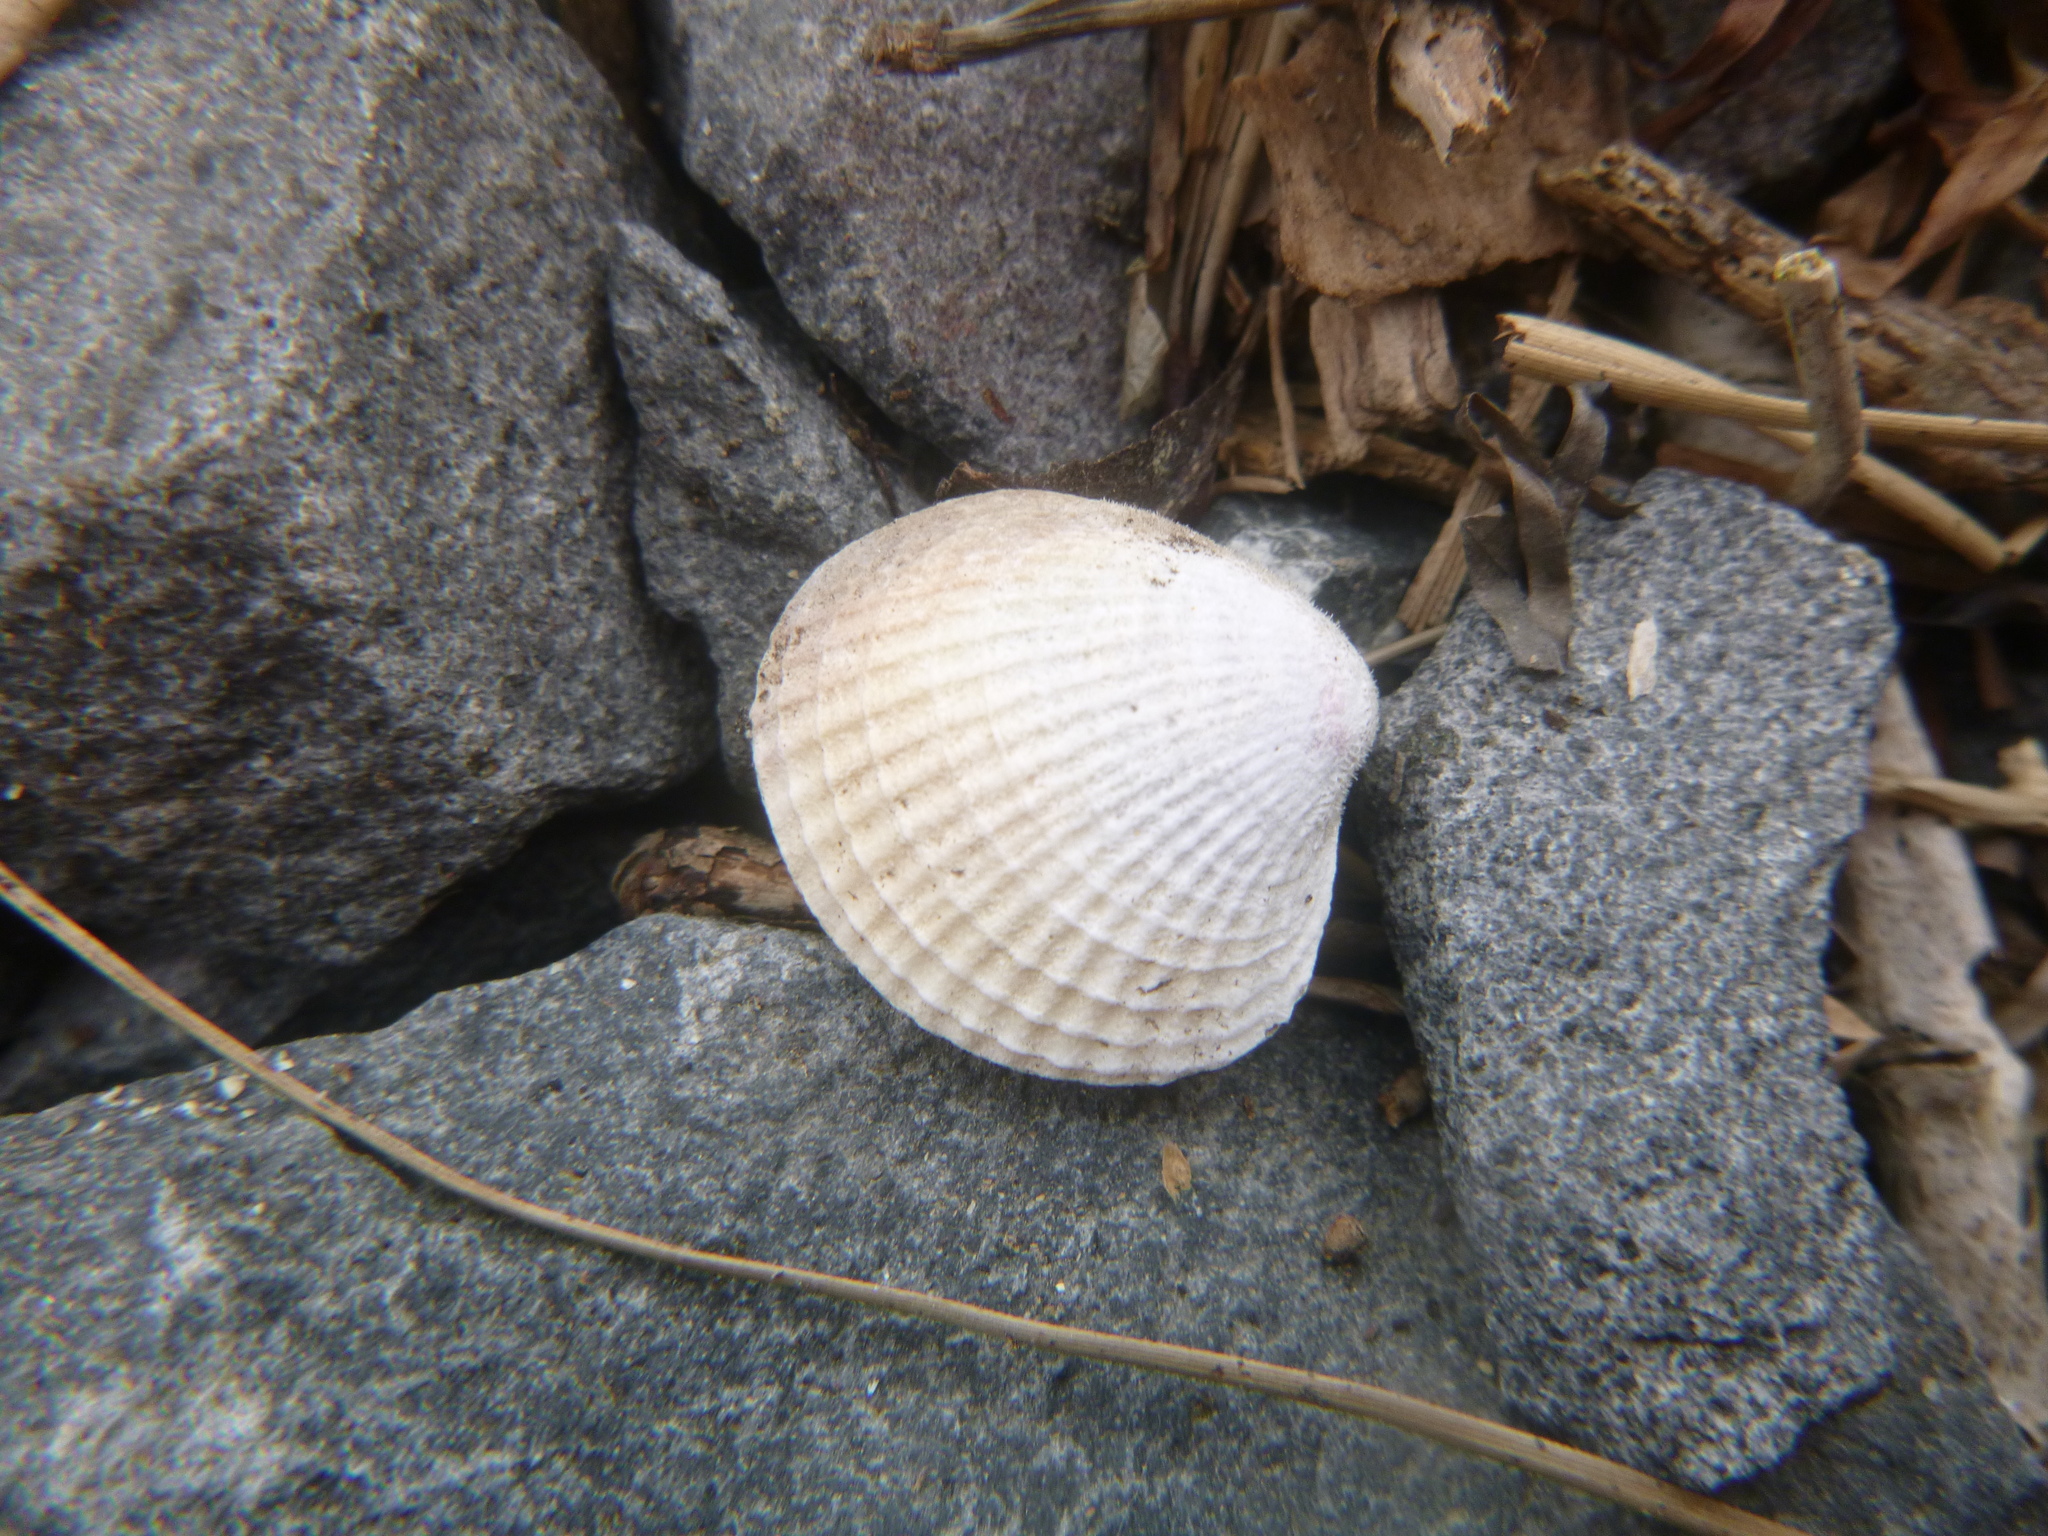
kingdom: Animalia
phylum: Mollusca
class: Bivalvia
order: Venerida
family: Veneridae
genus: Austrovenus
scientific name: Austrovenus stutchburyi
